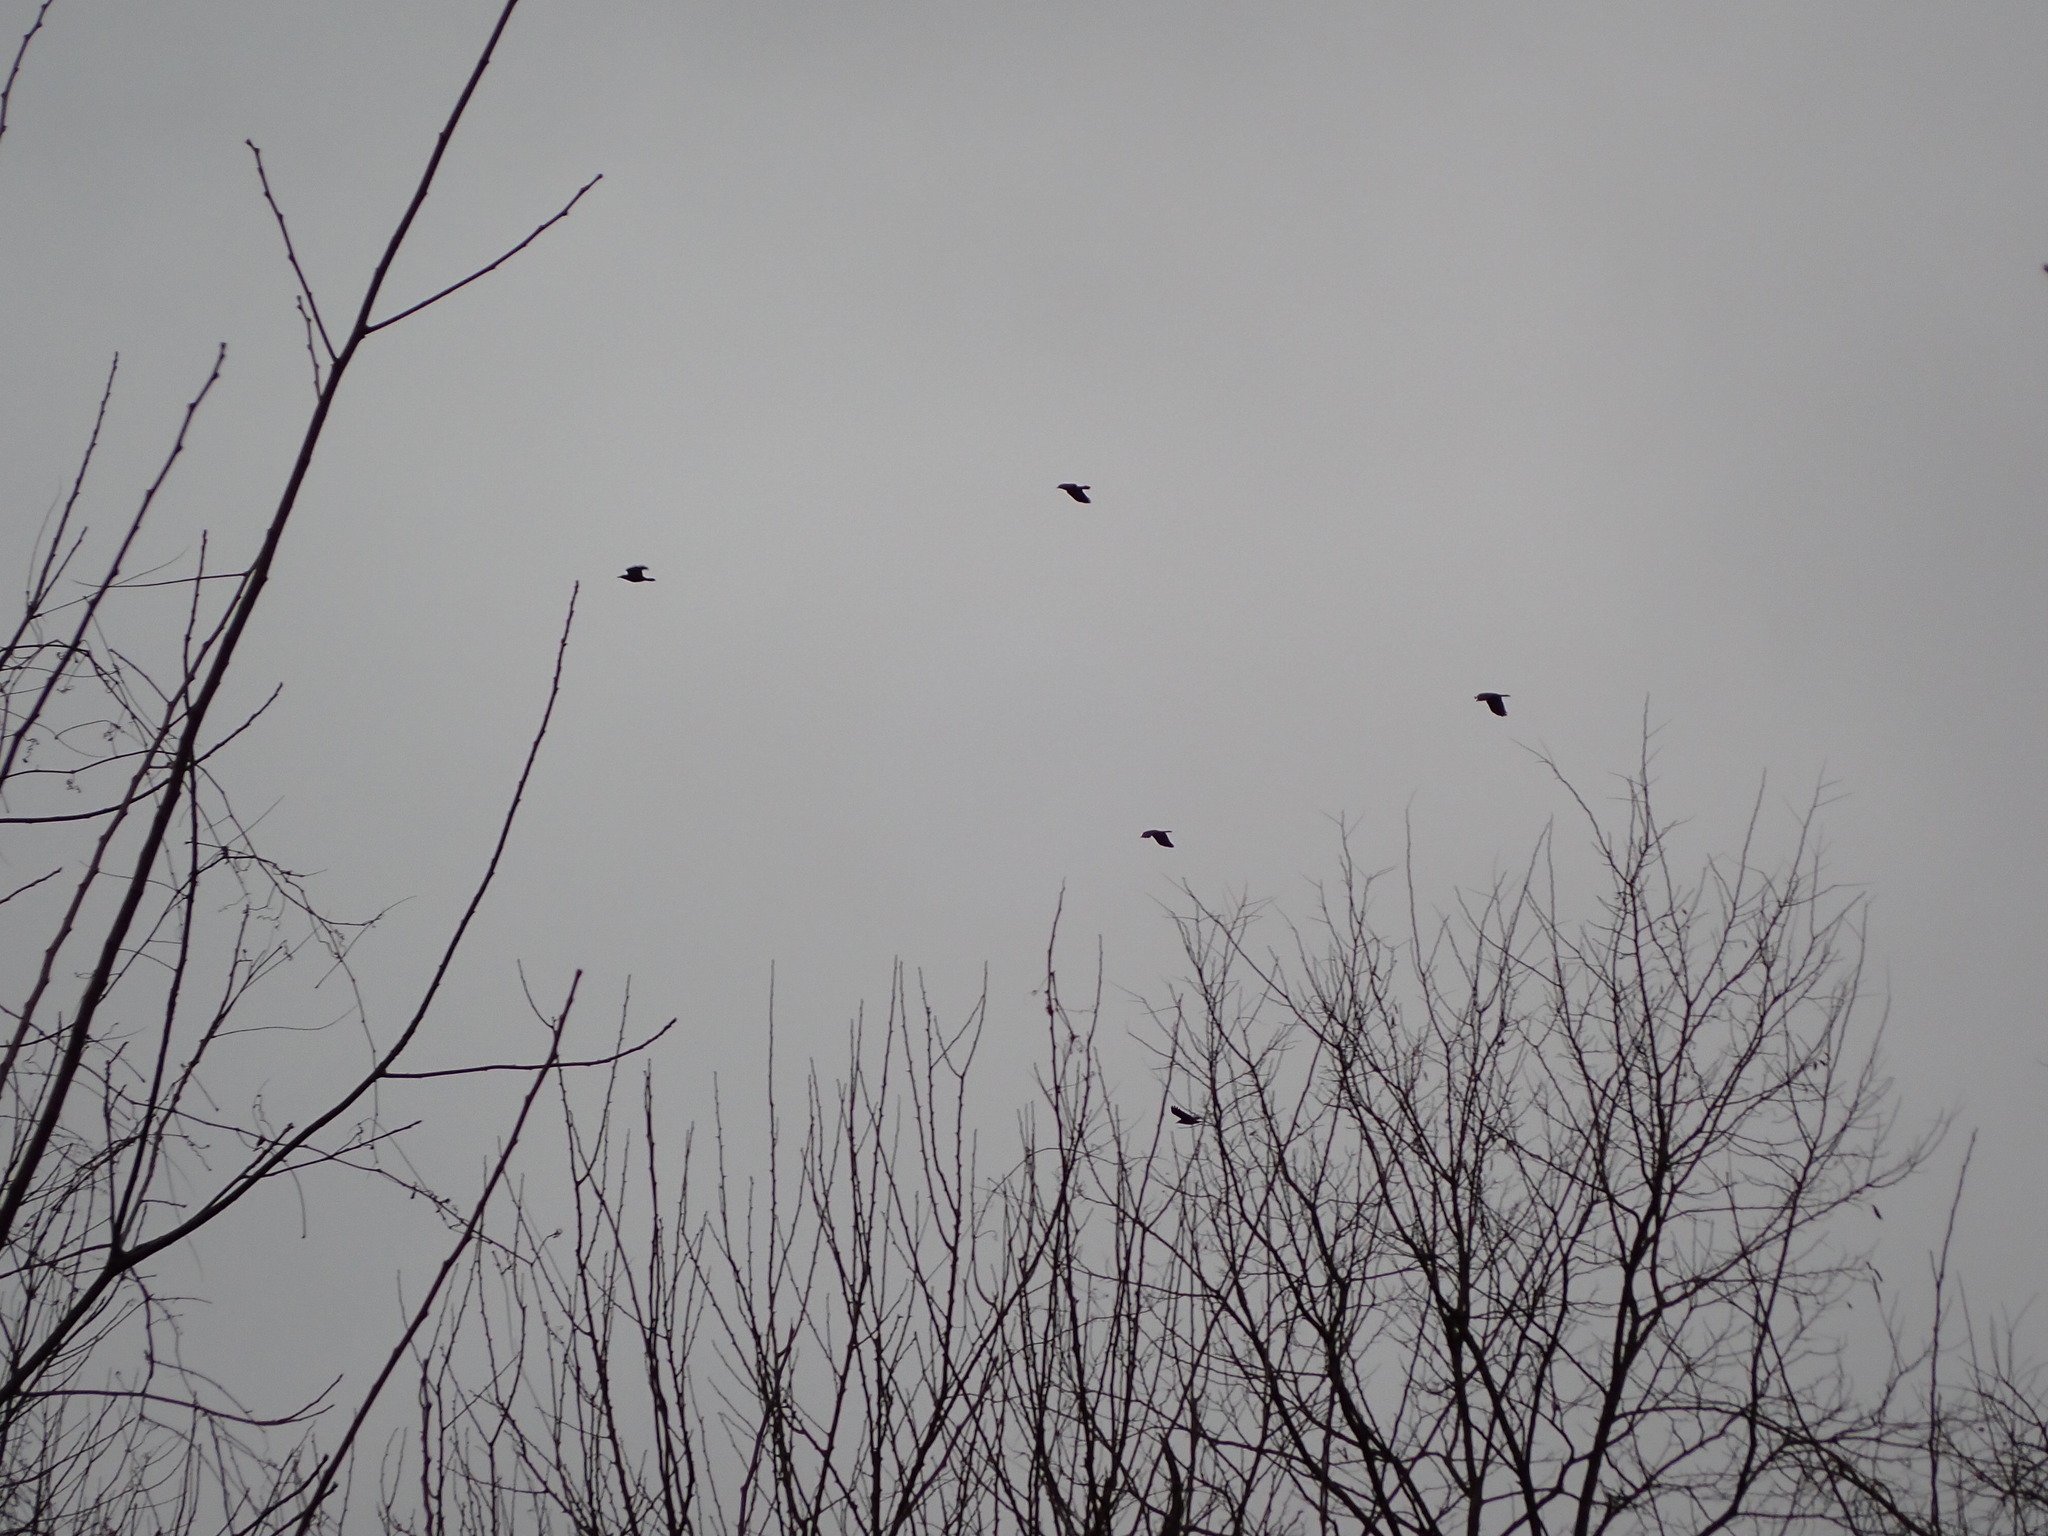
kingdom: Animalia
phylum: Chordata
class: Aves
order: Passeriformes
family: Corvidae
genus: Corvus
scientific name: Corvus brachyrhynchos
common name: American crow
